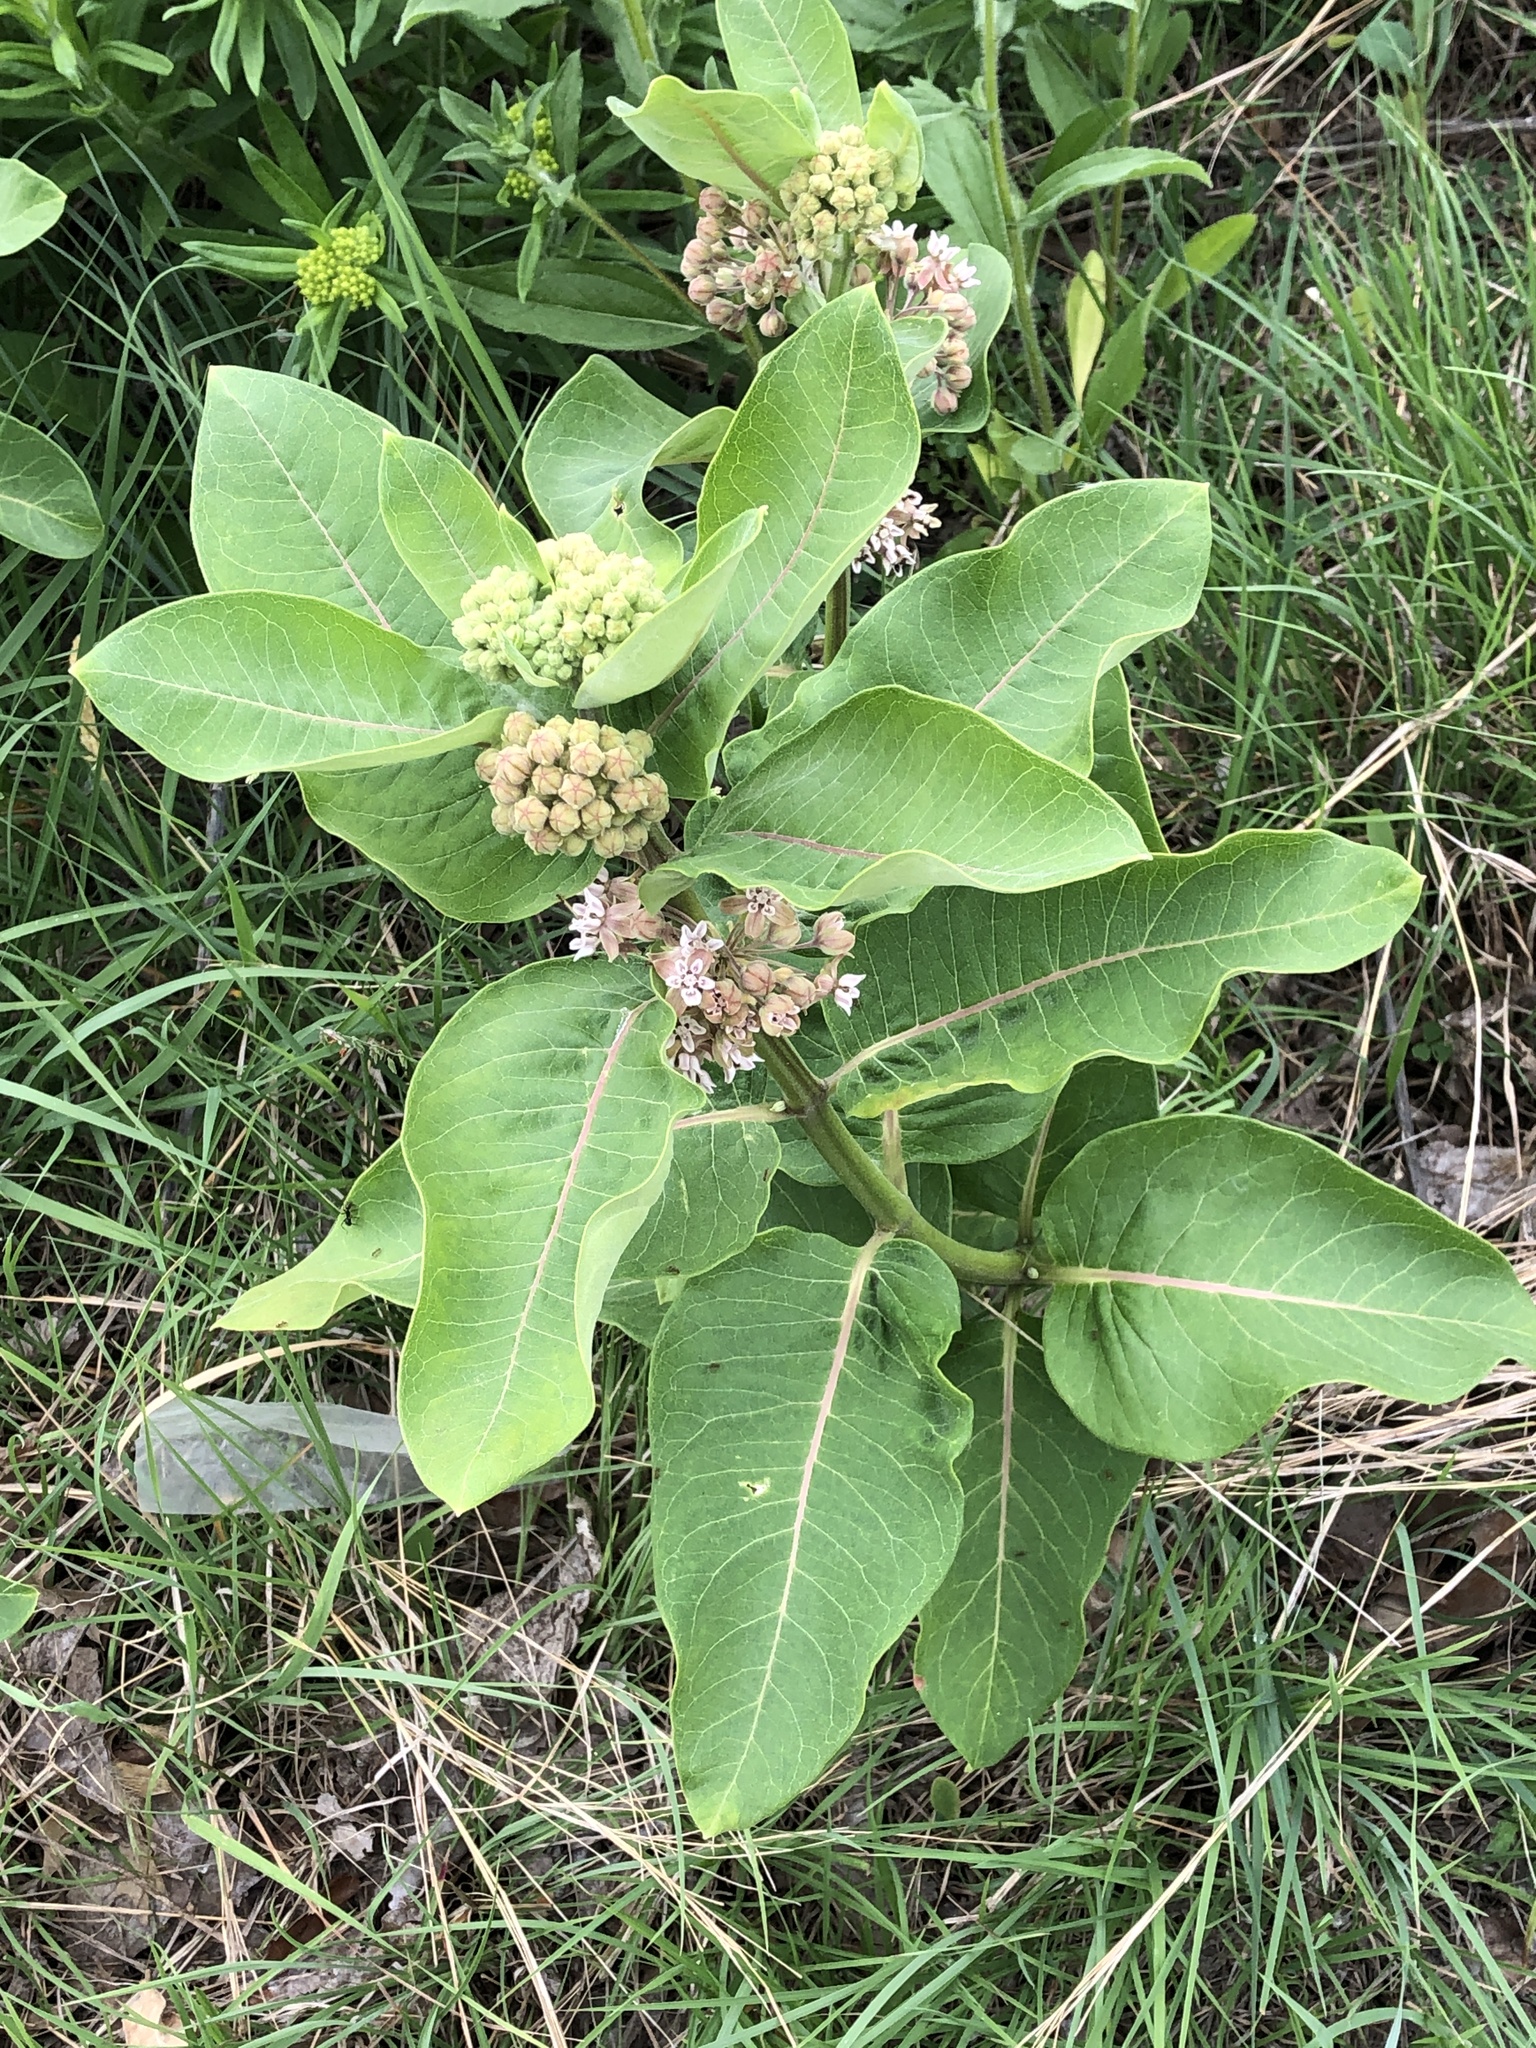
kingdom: Plantae
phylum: Tracheophyta
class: Magnoliopsida
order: Gentianales
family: Apocynaceae
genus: Asclepias
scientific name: Asclepias syriaca
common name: Common milkweed
